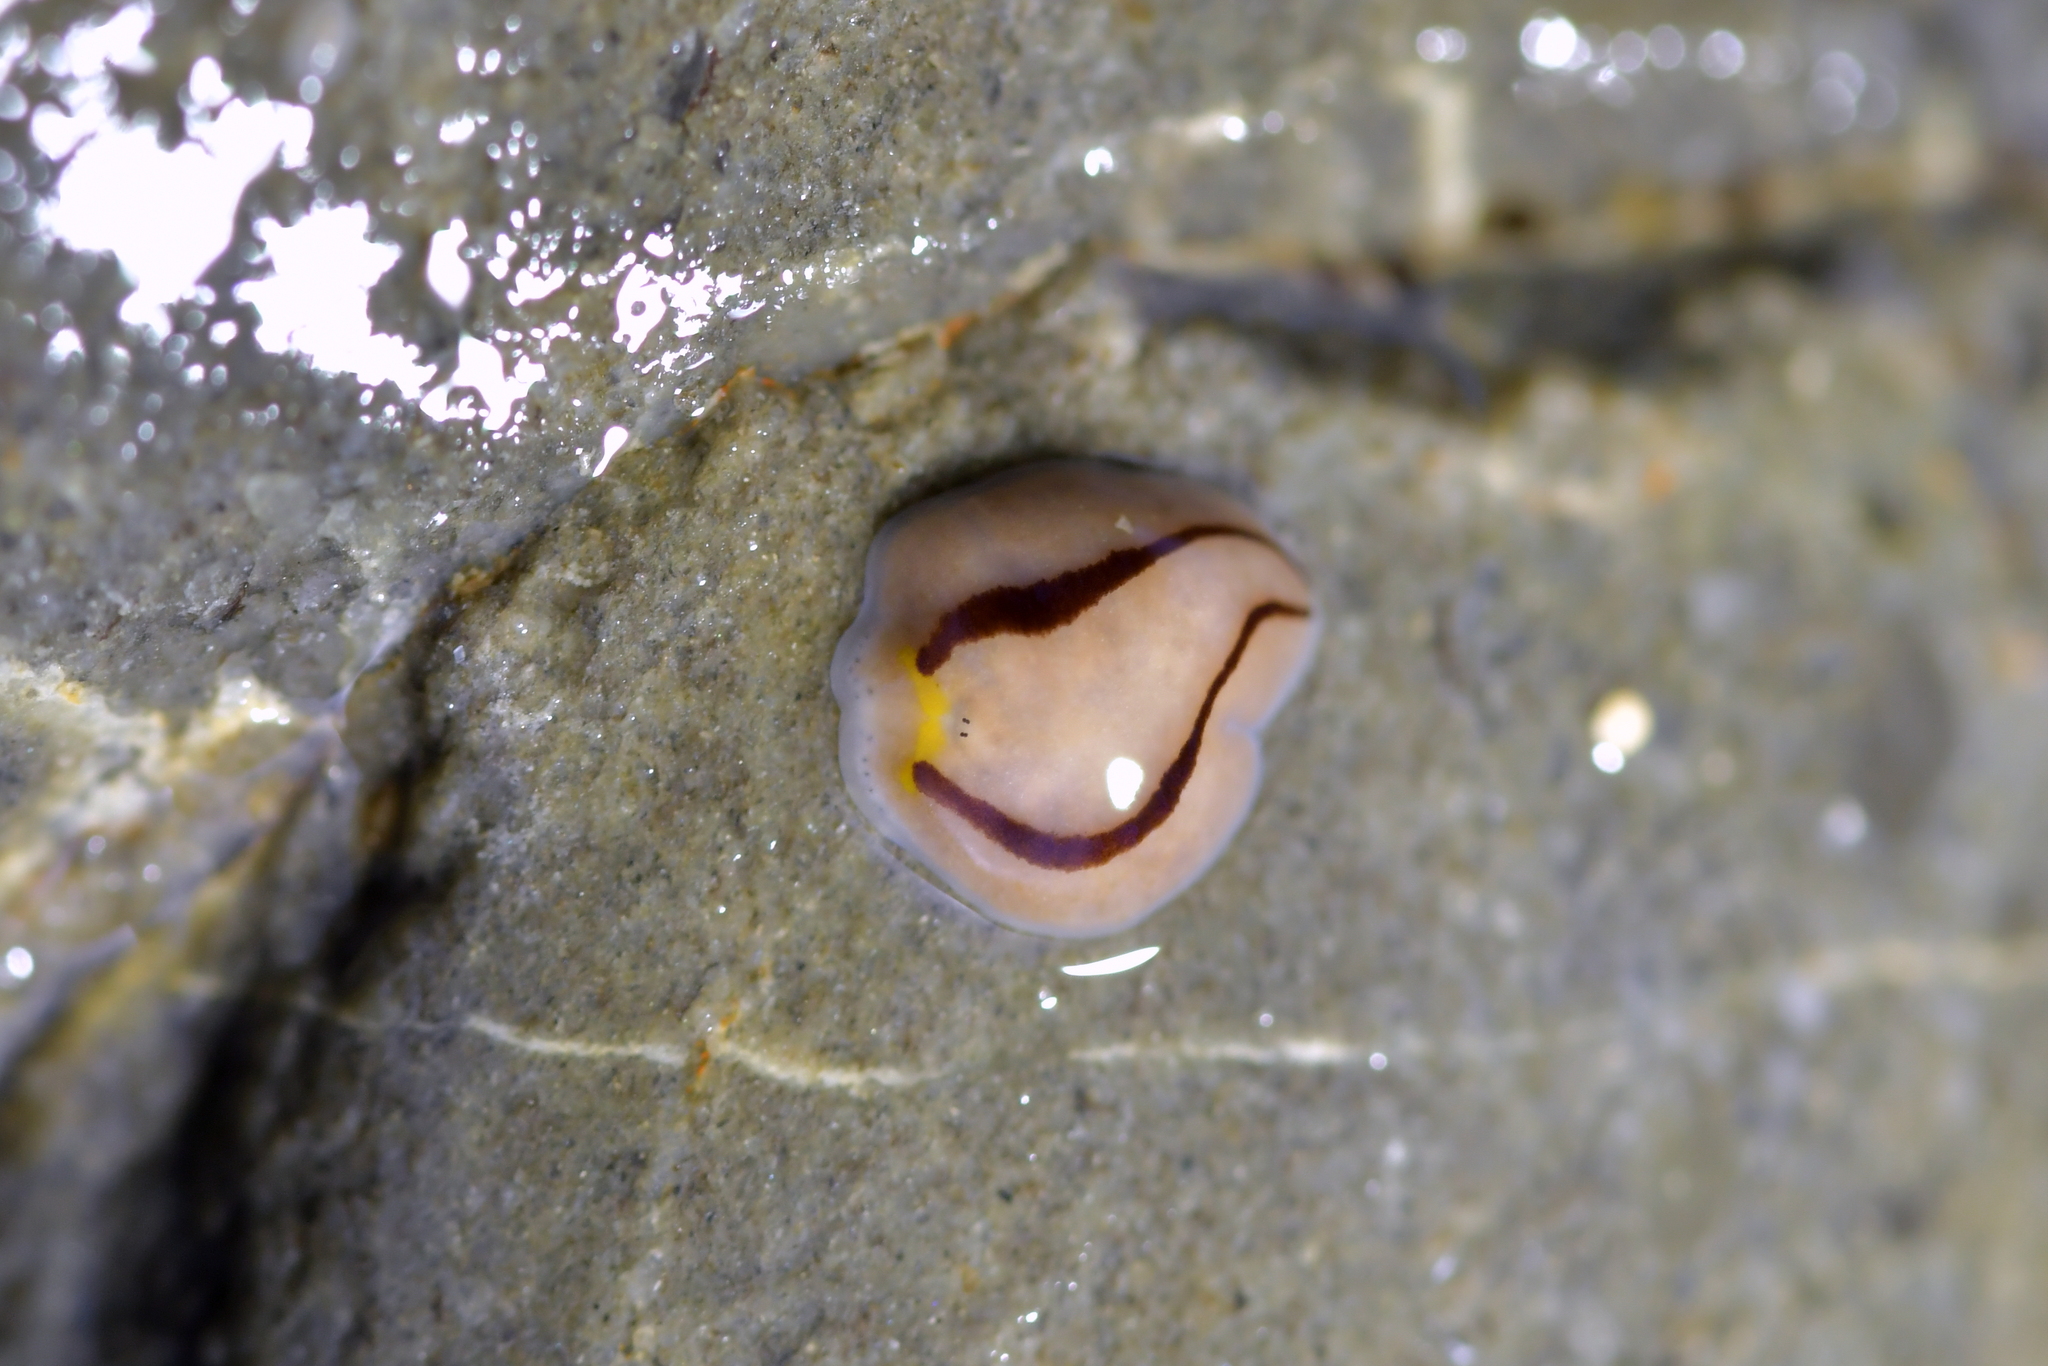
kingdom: Animalia
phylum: Platyhelminthes
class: Turbellaria
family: Chromoplanidae
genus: Chromoplana
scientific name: Chromoplana sirena
